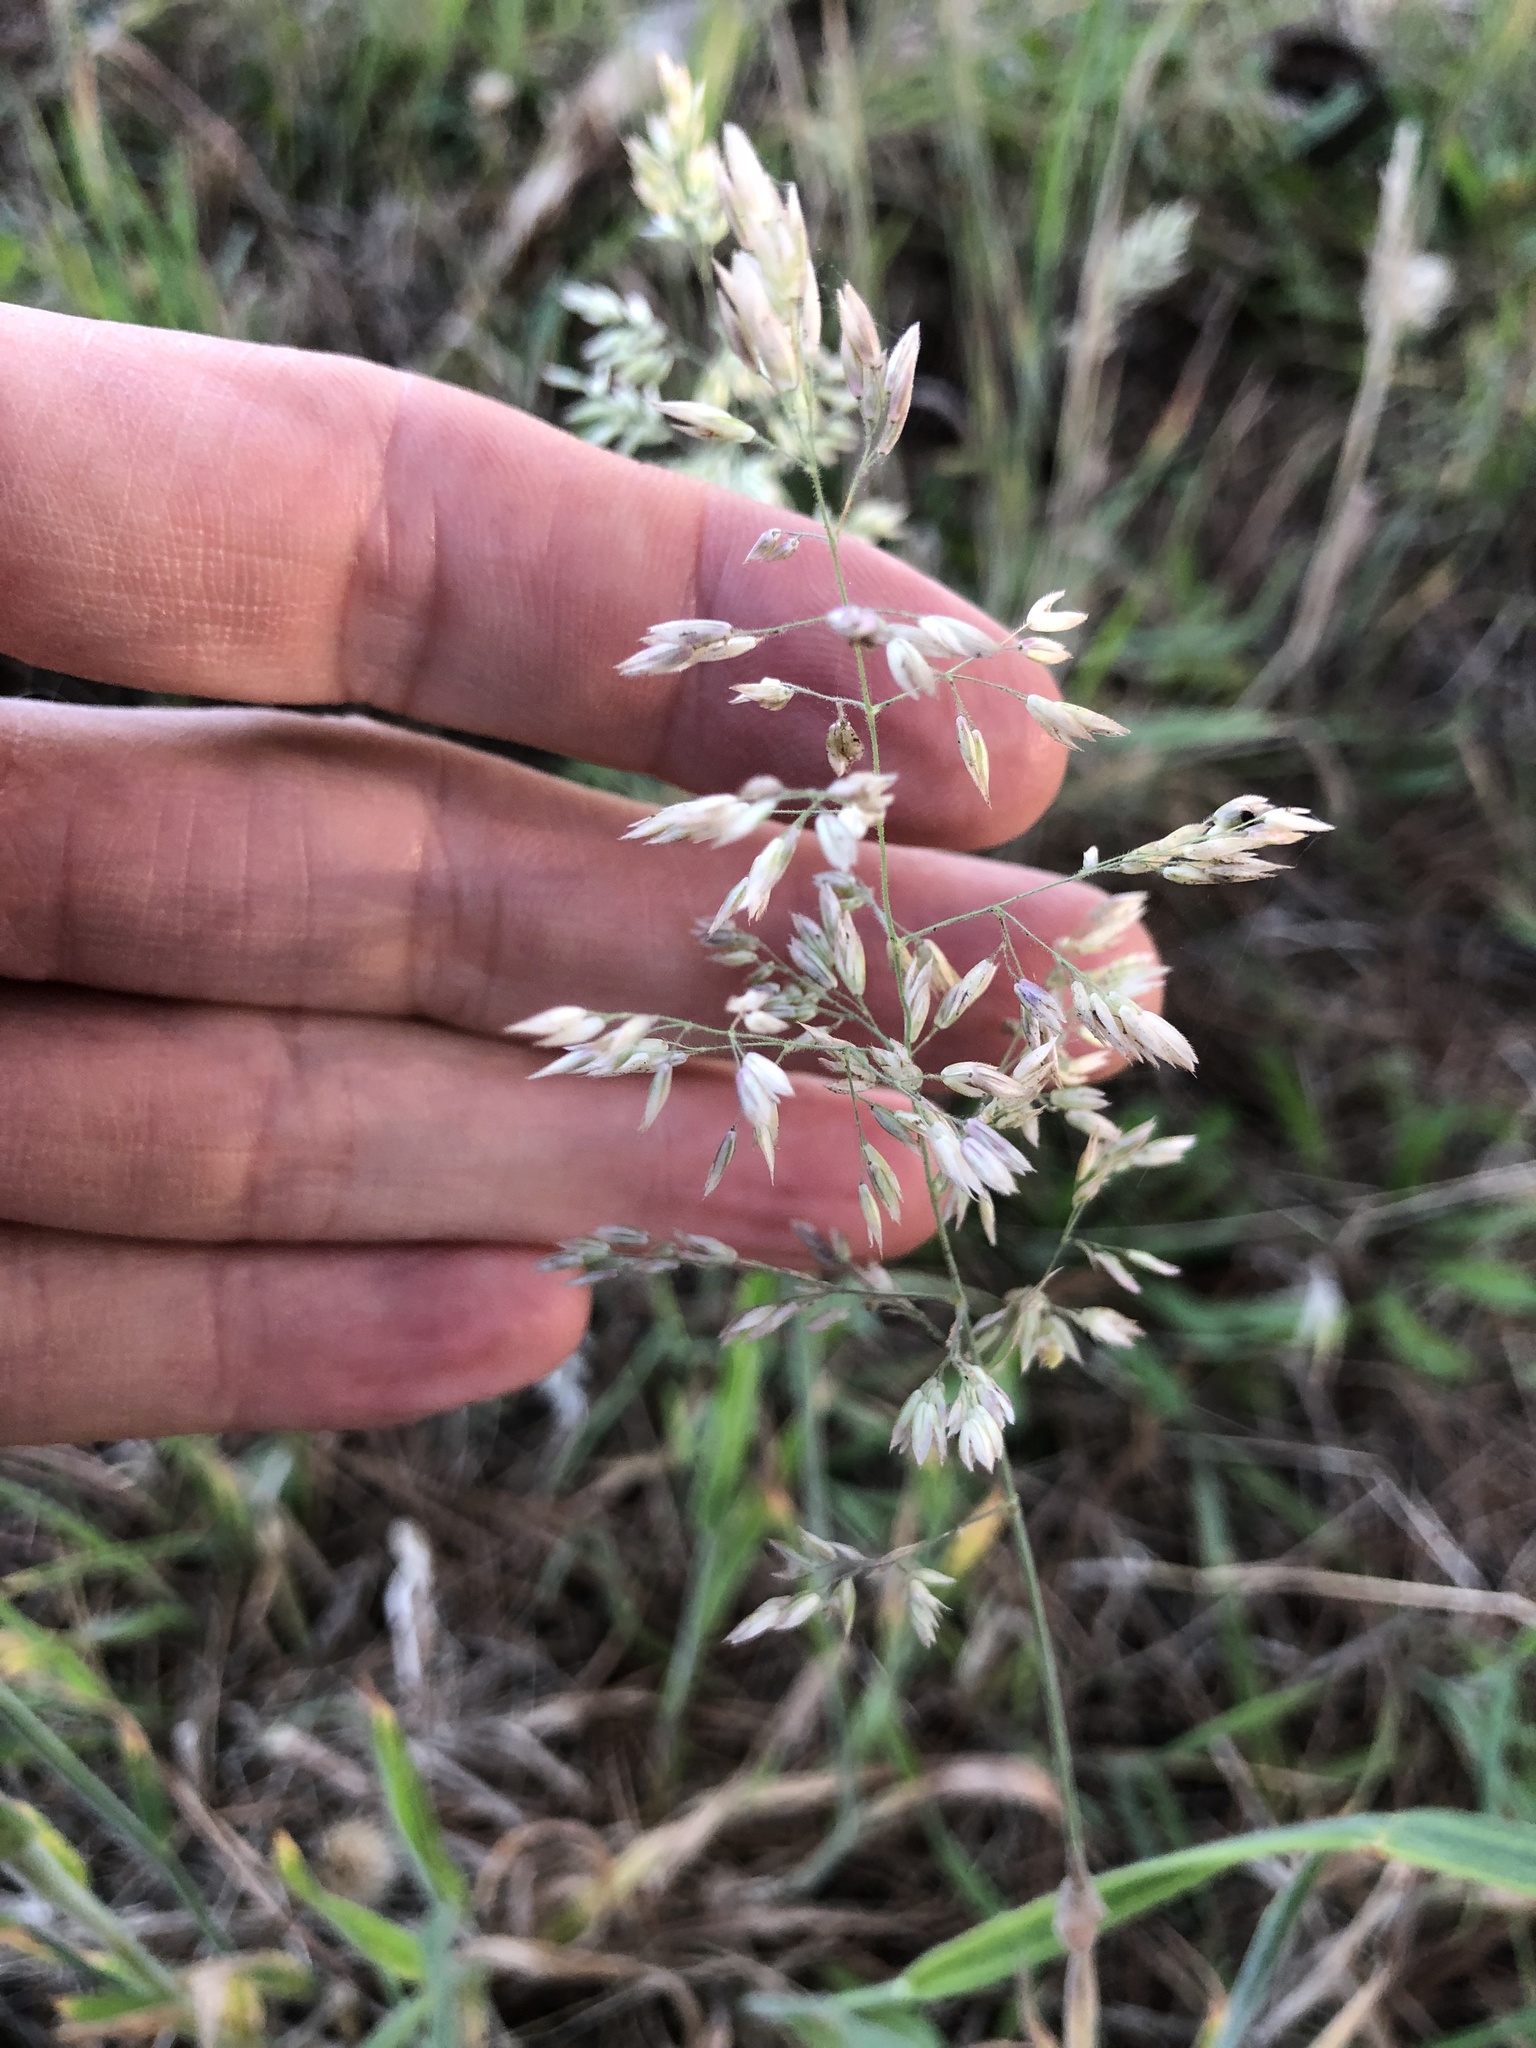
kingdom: Plantae
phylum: Tracheophyta
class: Liliopsida
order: Poales
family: Poaceae
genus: Holcus
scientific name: Holcus lanatus
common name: Yorkshire-fog
